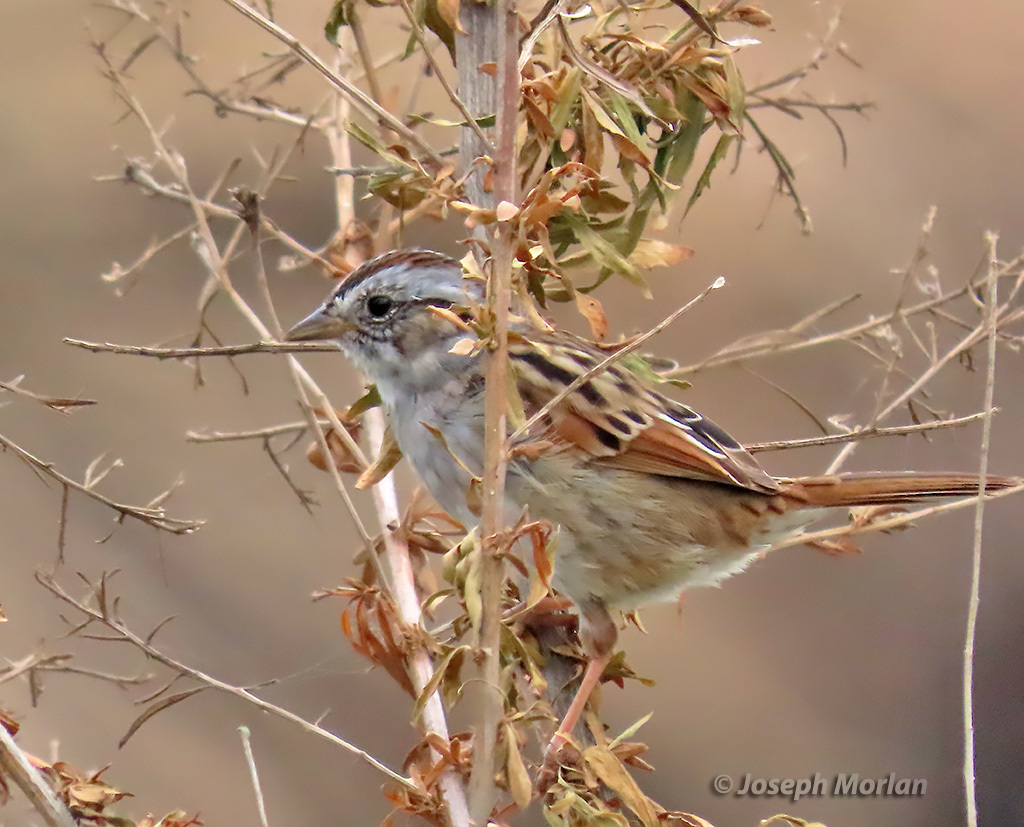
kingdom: Animalia
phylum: Chordata
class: Aves
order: Passeriformes
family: Passerellidae
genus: Melospiza
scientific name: Melospiza georgiana
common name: Swamp sparrow
